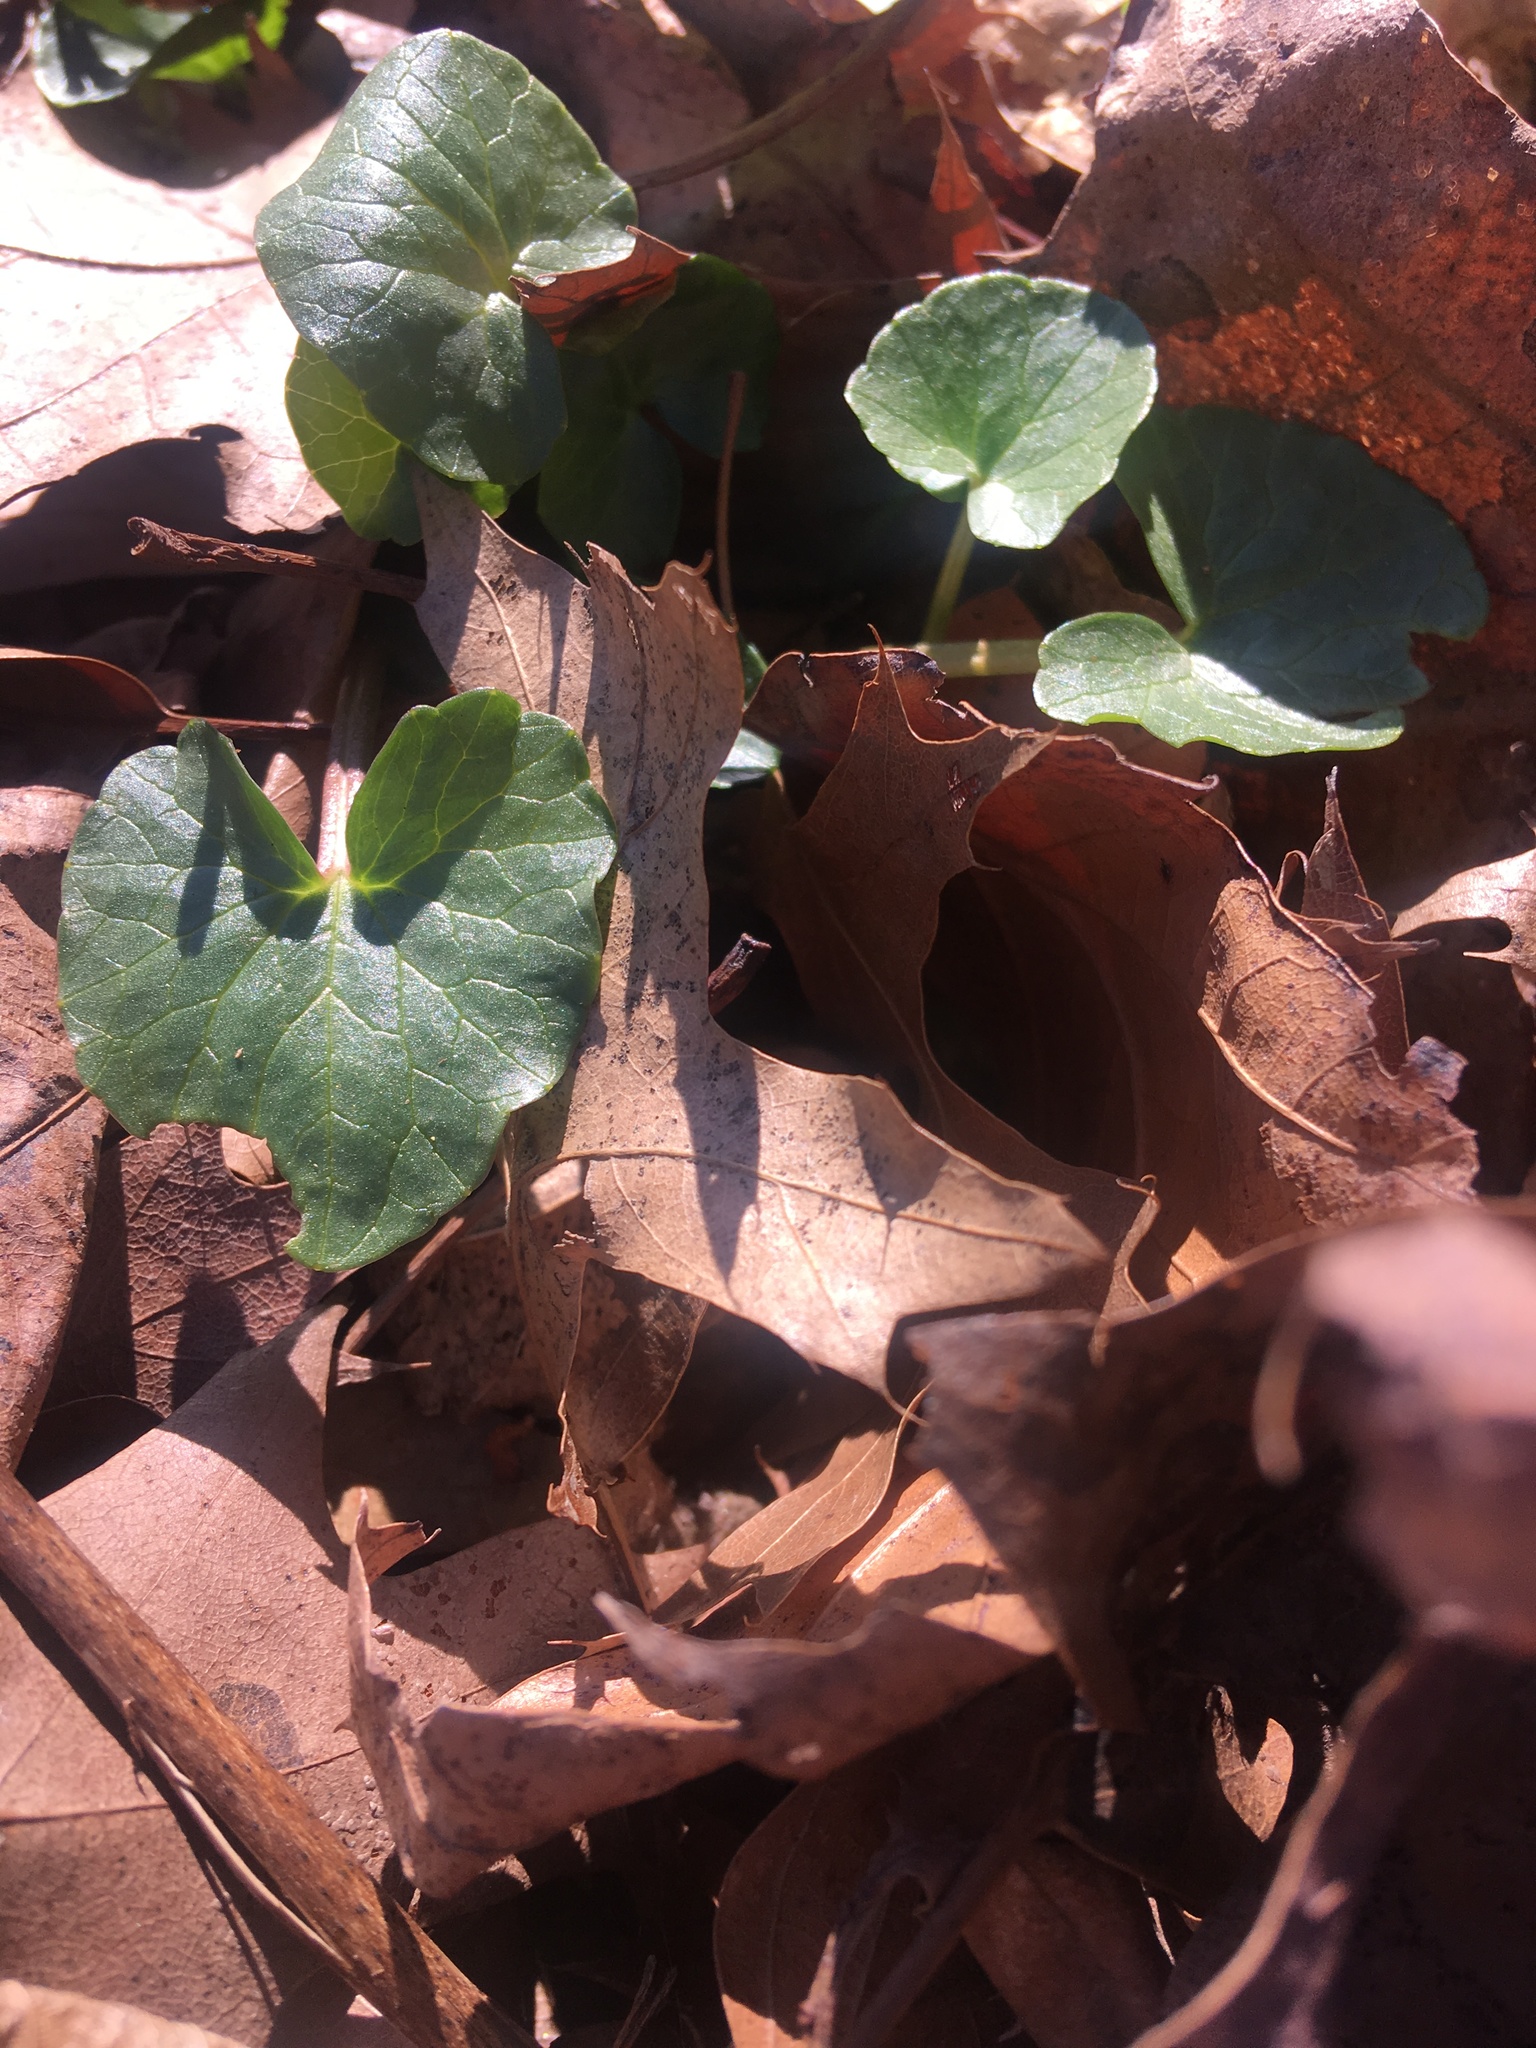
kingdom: Plantae
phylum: Tracheophyta
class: Magnoliopsida
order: Ranunculales
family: Ranunculaceae
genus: Ficaria
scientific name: Ficaria verna
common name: Lesser celandine
